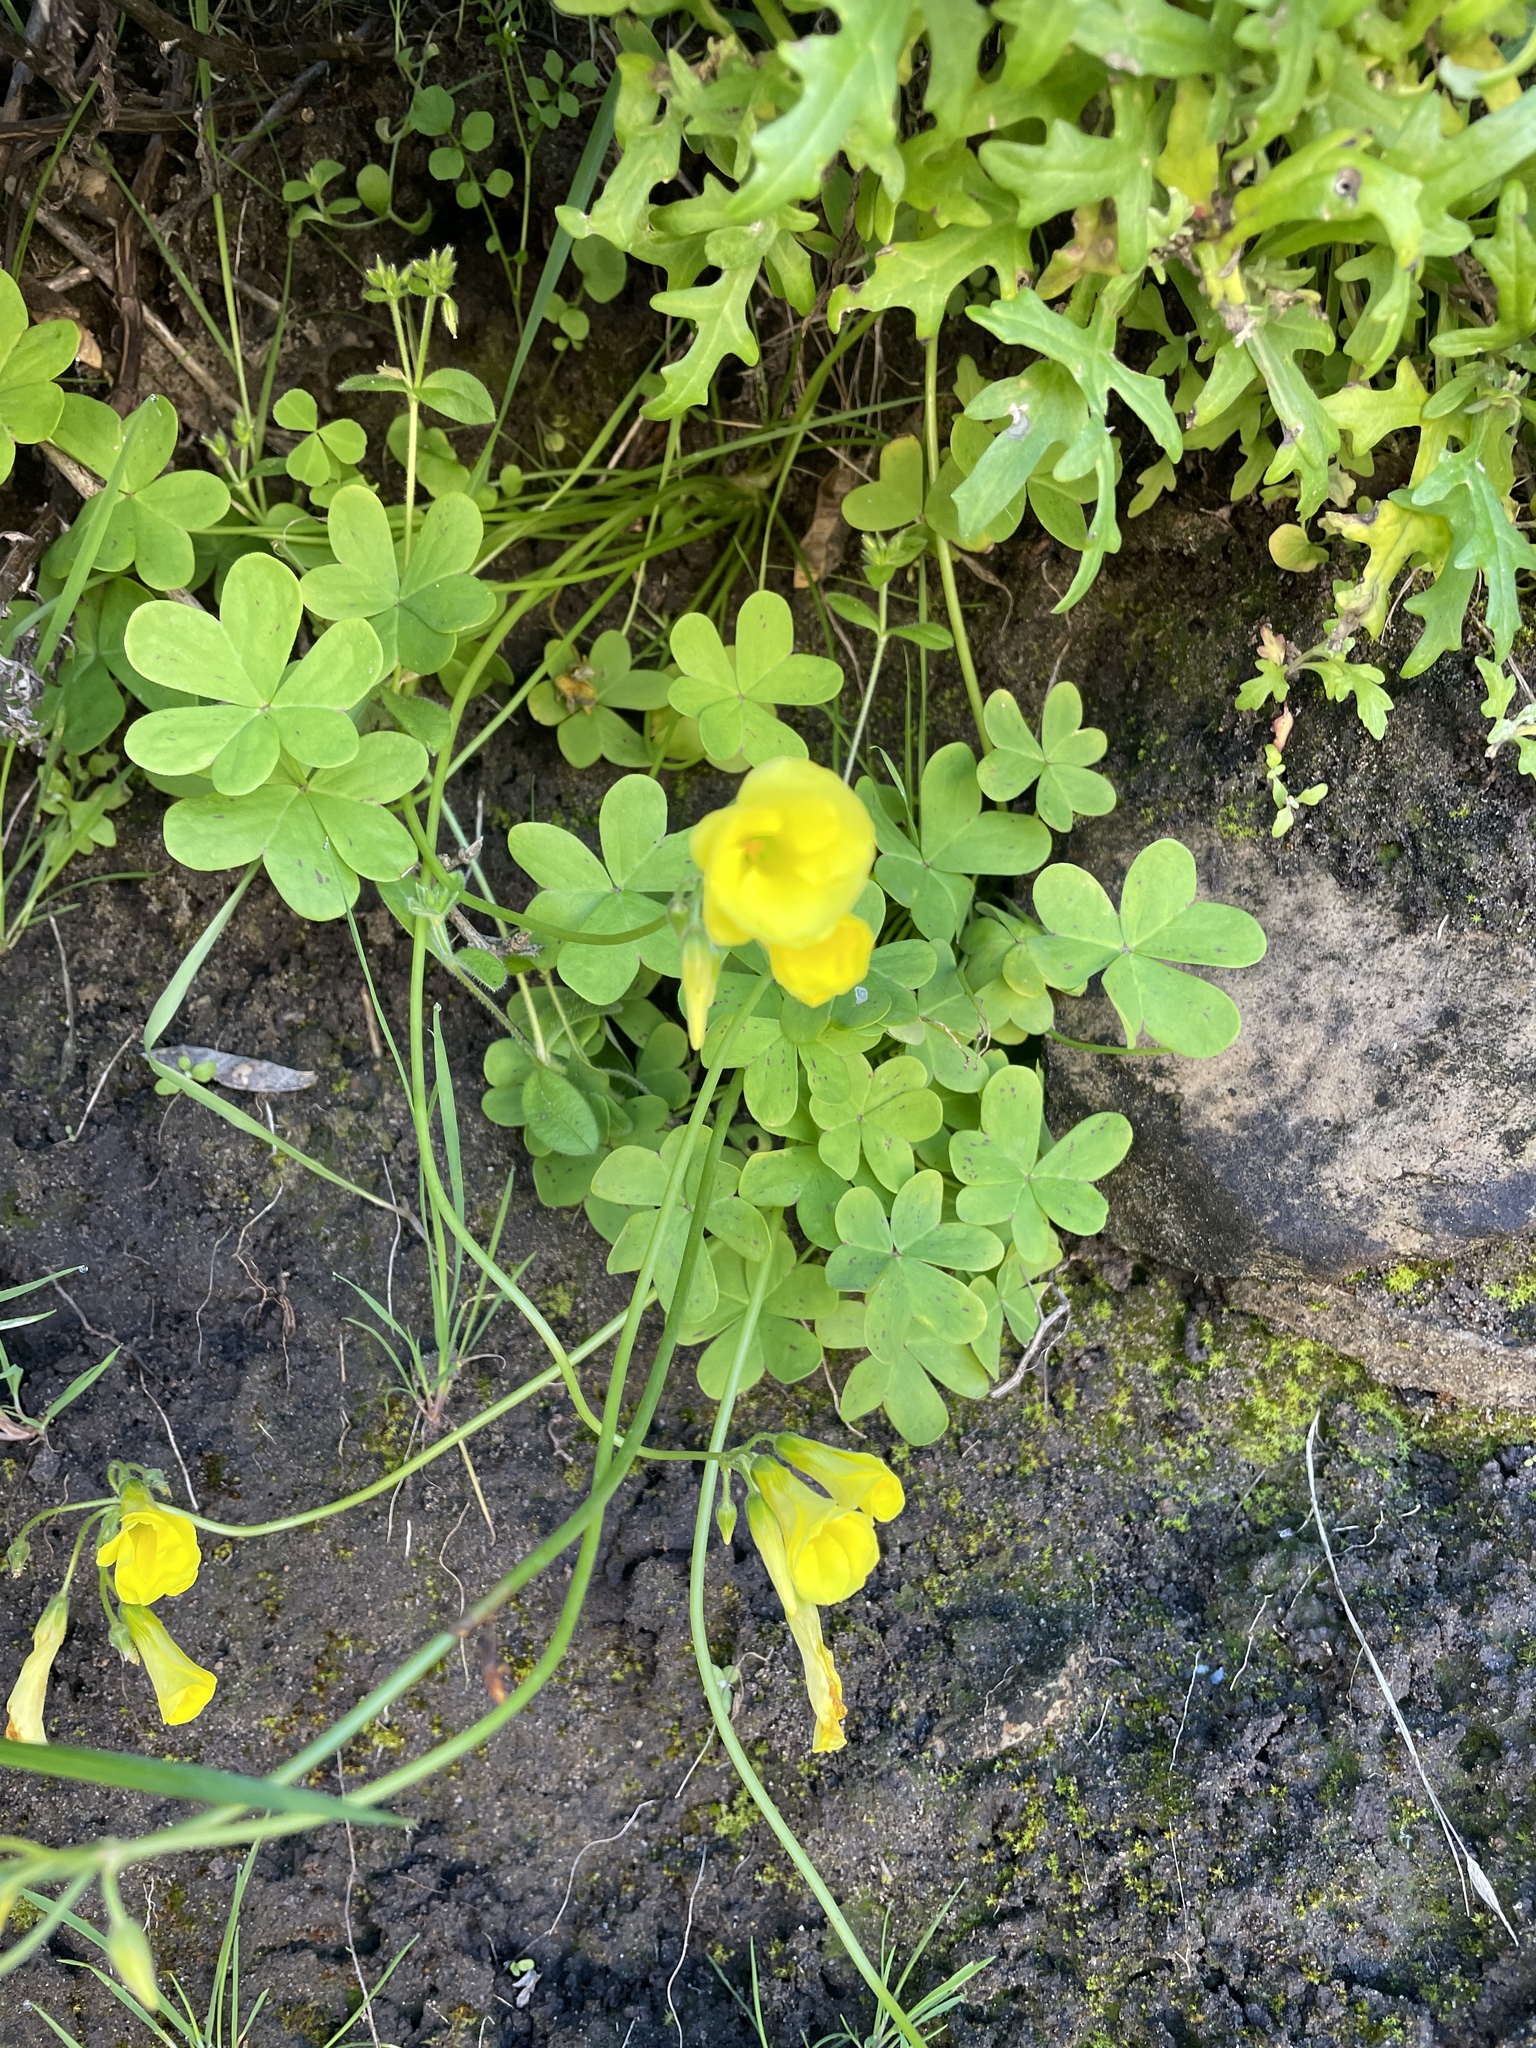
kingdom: Plantae
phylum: Tracheophyta
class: Magnoliopsida
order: Oxalidales
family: Oxalidaceae
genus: Oxalis
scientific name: Oxalis pes-caprae
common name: Bermuda-buttercup
